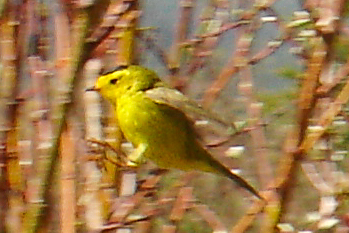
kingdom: Animalia
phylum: Chordata
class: Aves
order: Passeriformes
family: Parulidae
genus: Cardellina
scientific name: Cardellina pusilla
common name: Wilson's warbler
